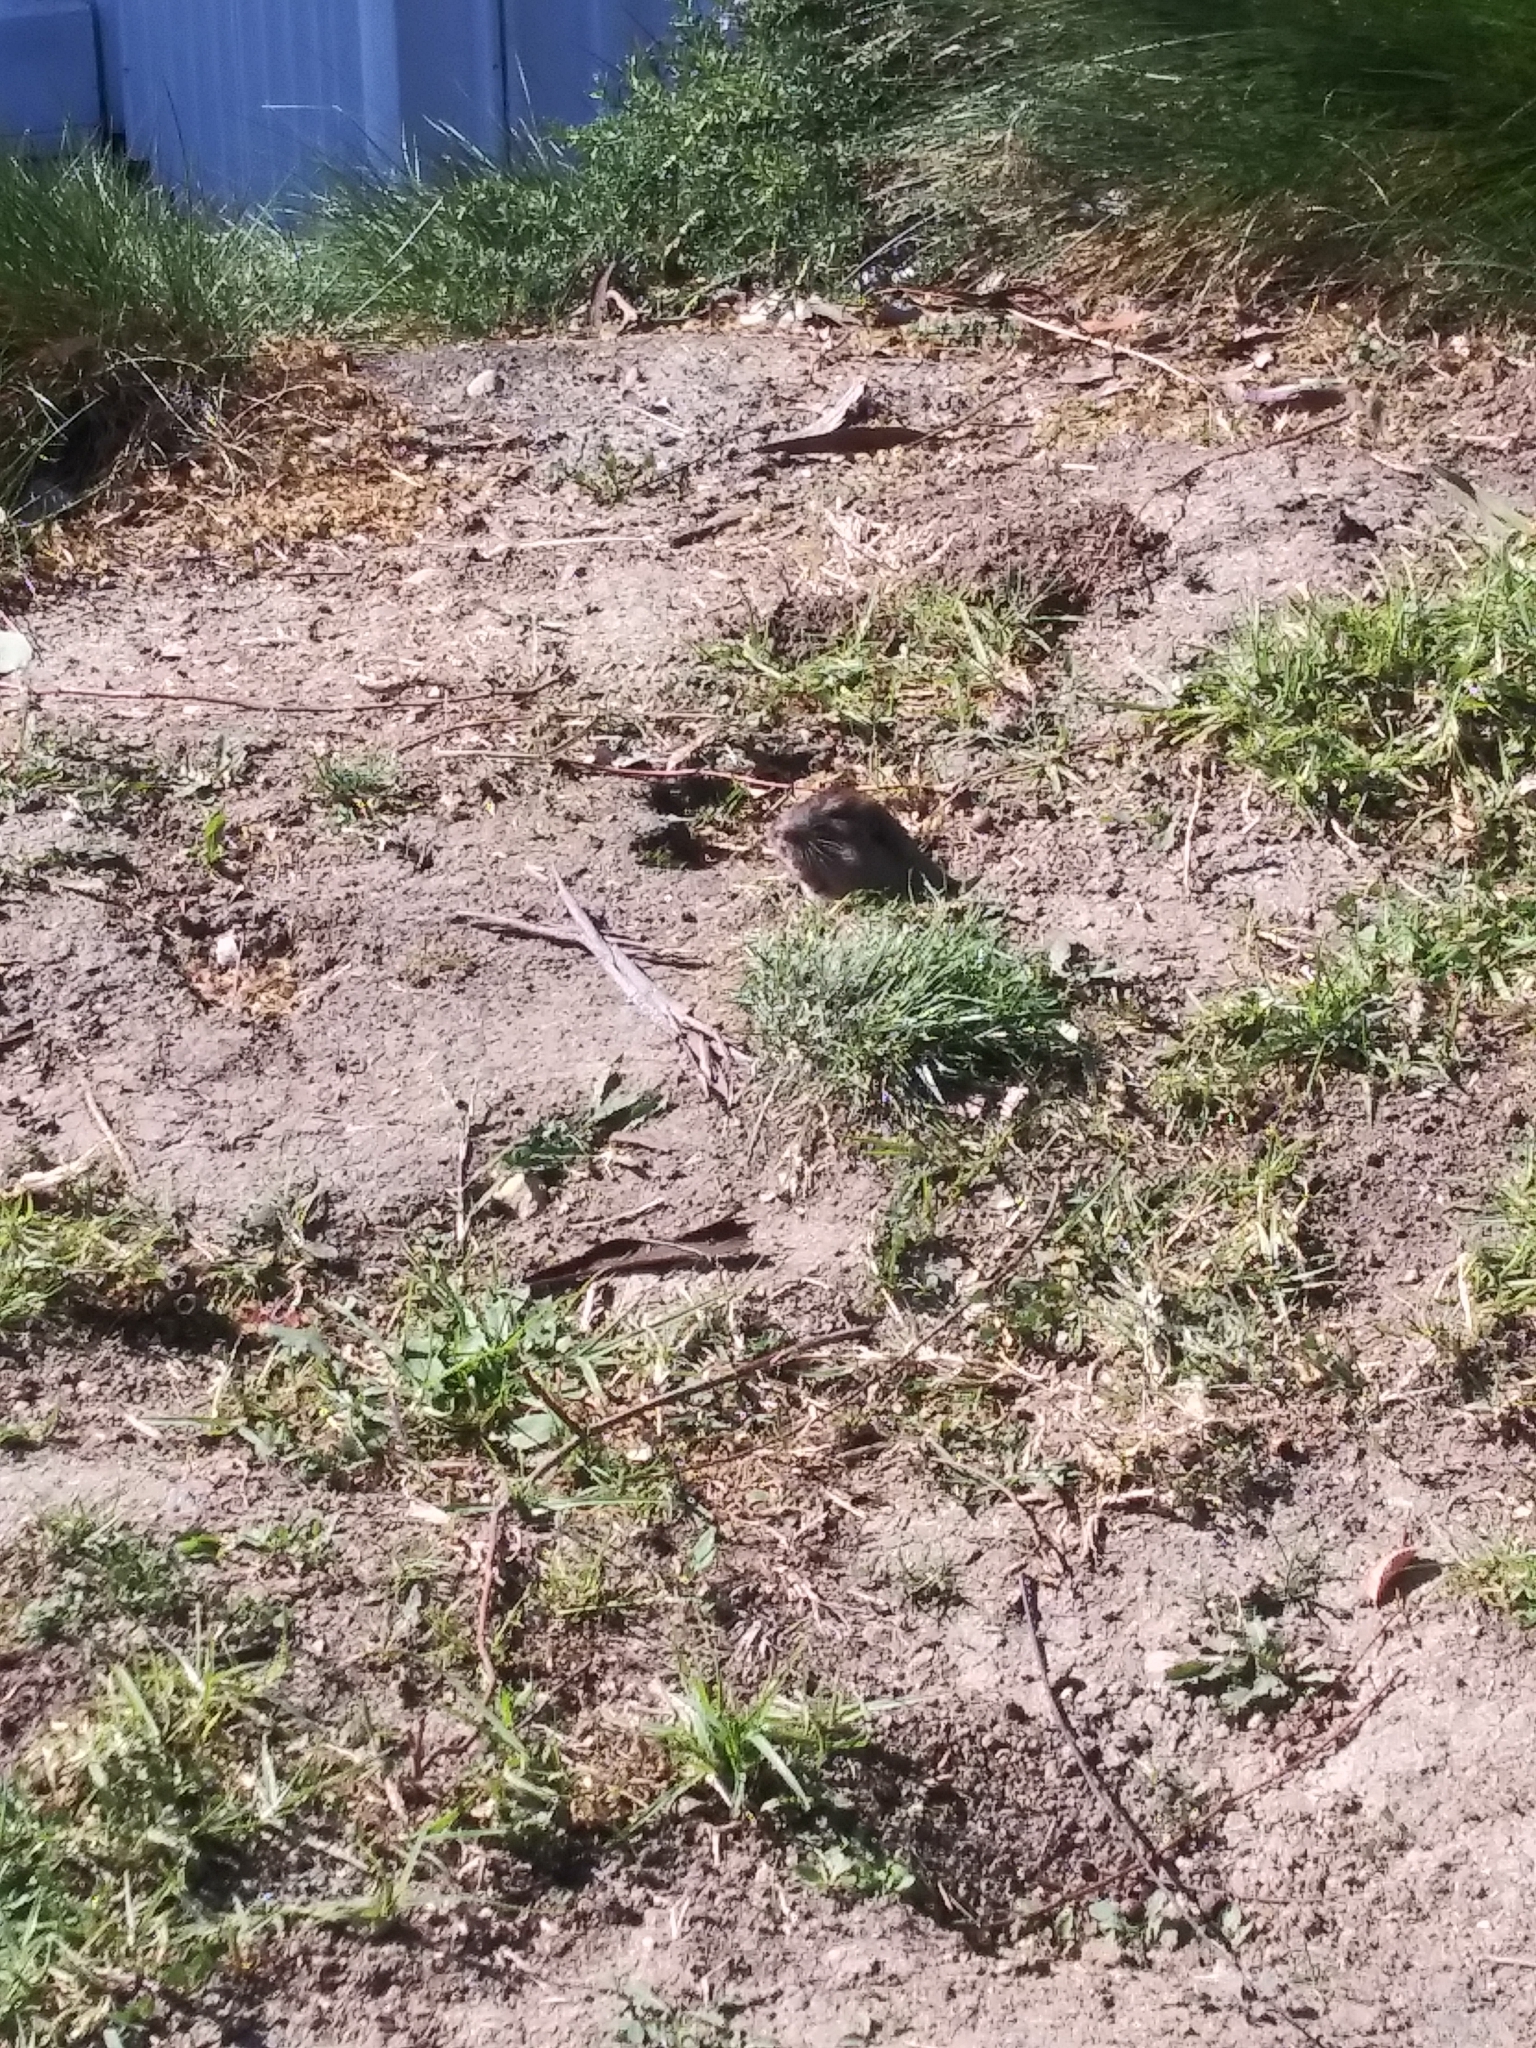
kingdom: Animalia
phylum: Chordata
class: Mammalia
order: Rodentia
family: Geomyidae
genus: Thomomys
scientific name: Thomomys bottae
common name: Botta's pocket gopher
